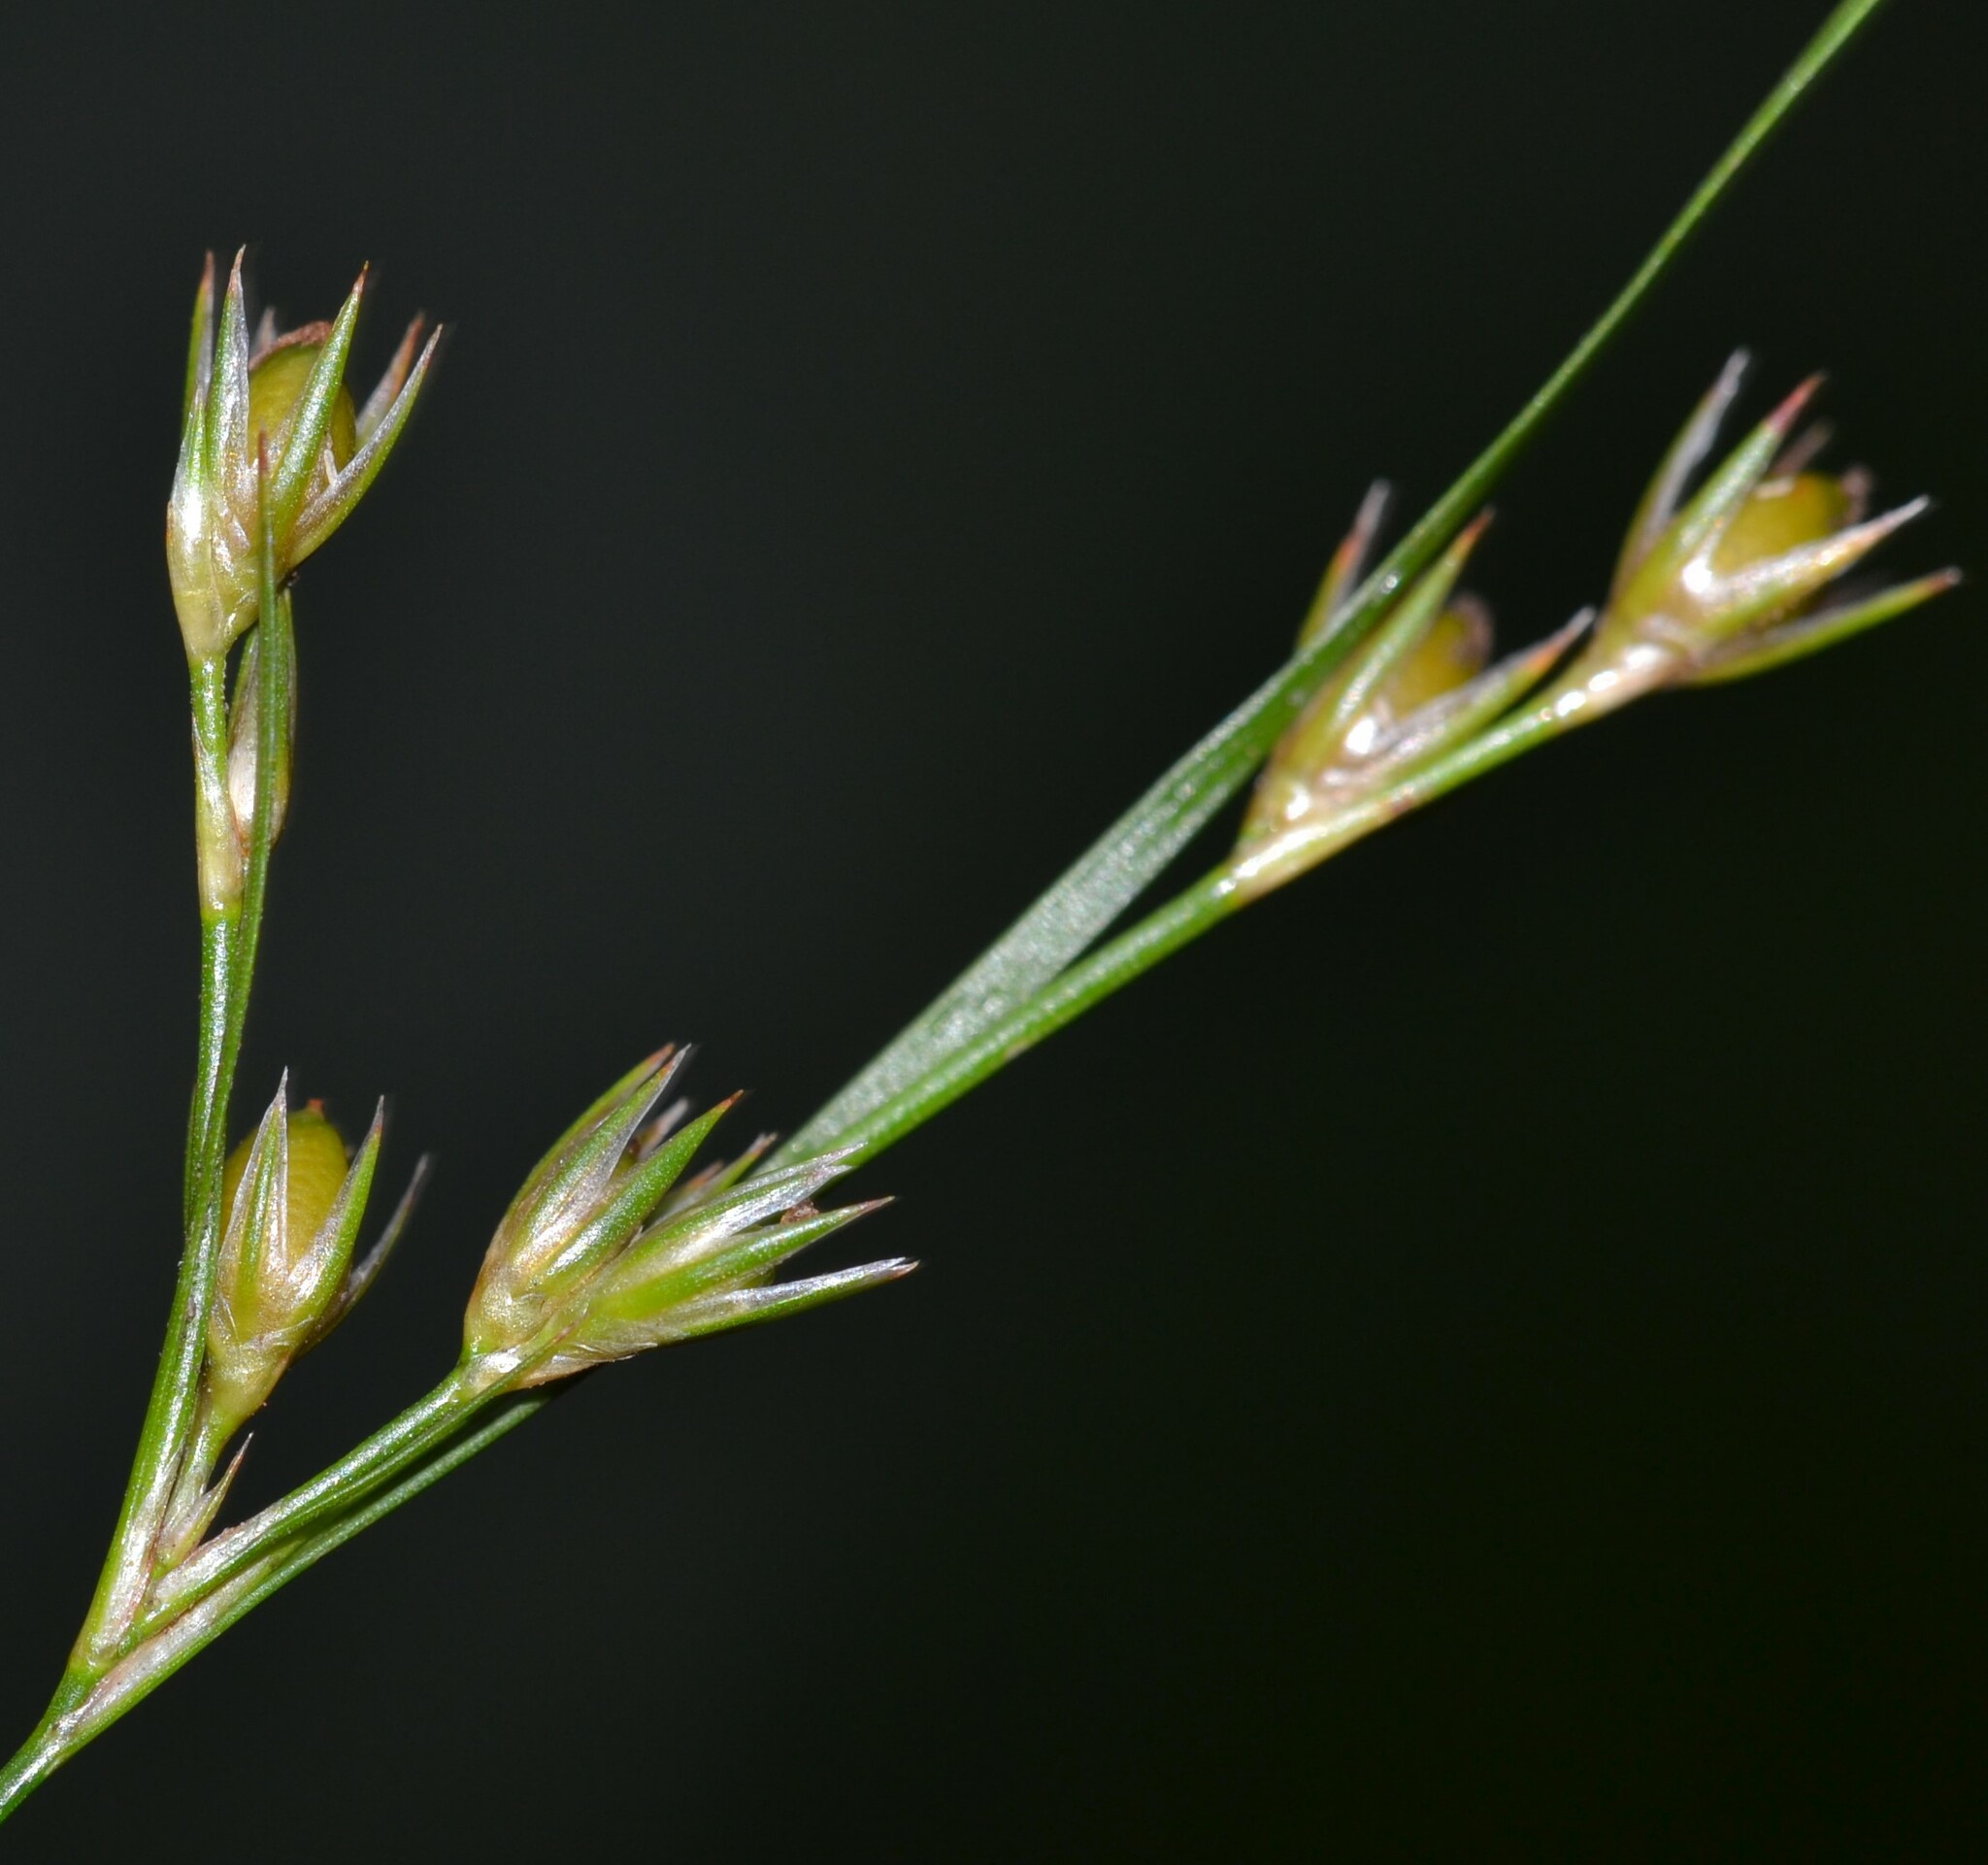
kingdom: Plantae
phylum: Tracheophyta
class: Liliopsida
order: Poales
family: Juncaceae
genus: Juncus
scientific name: Juncus tenuis
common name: Slender rush
